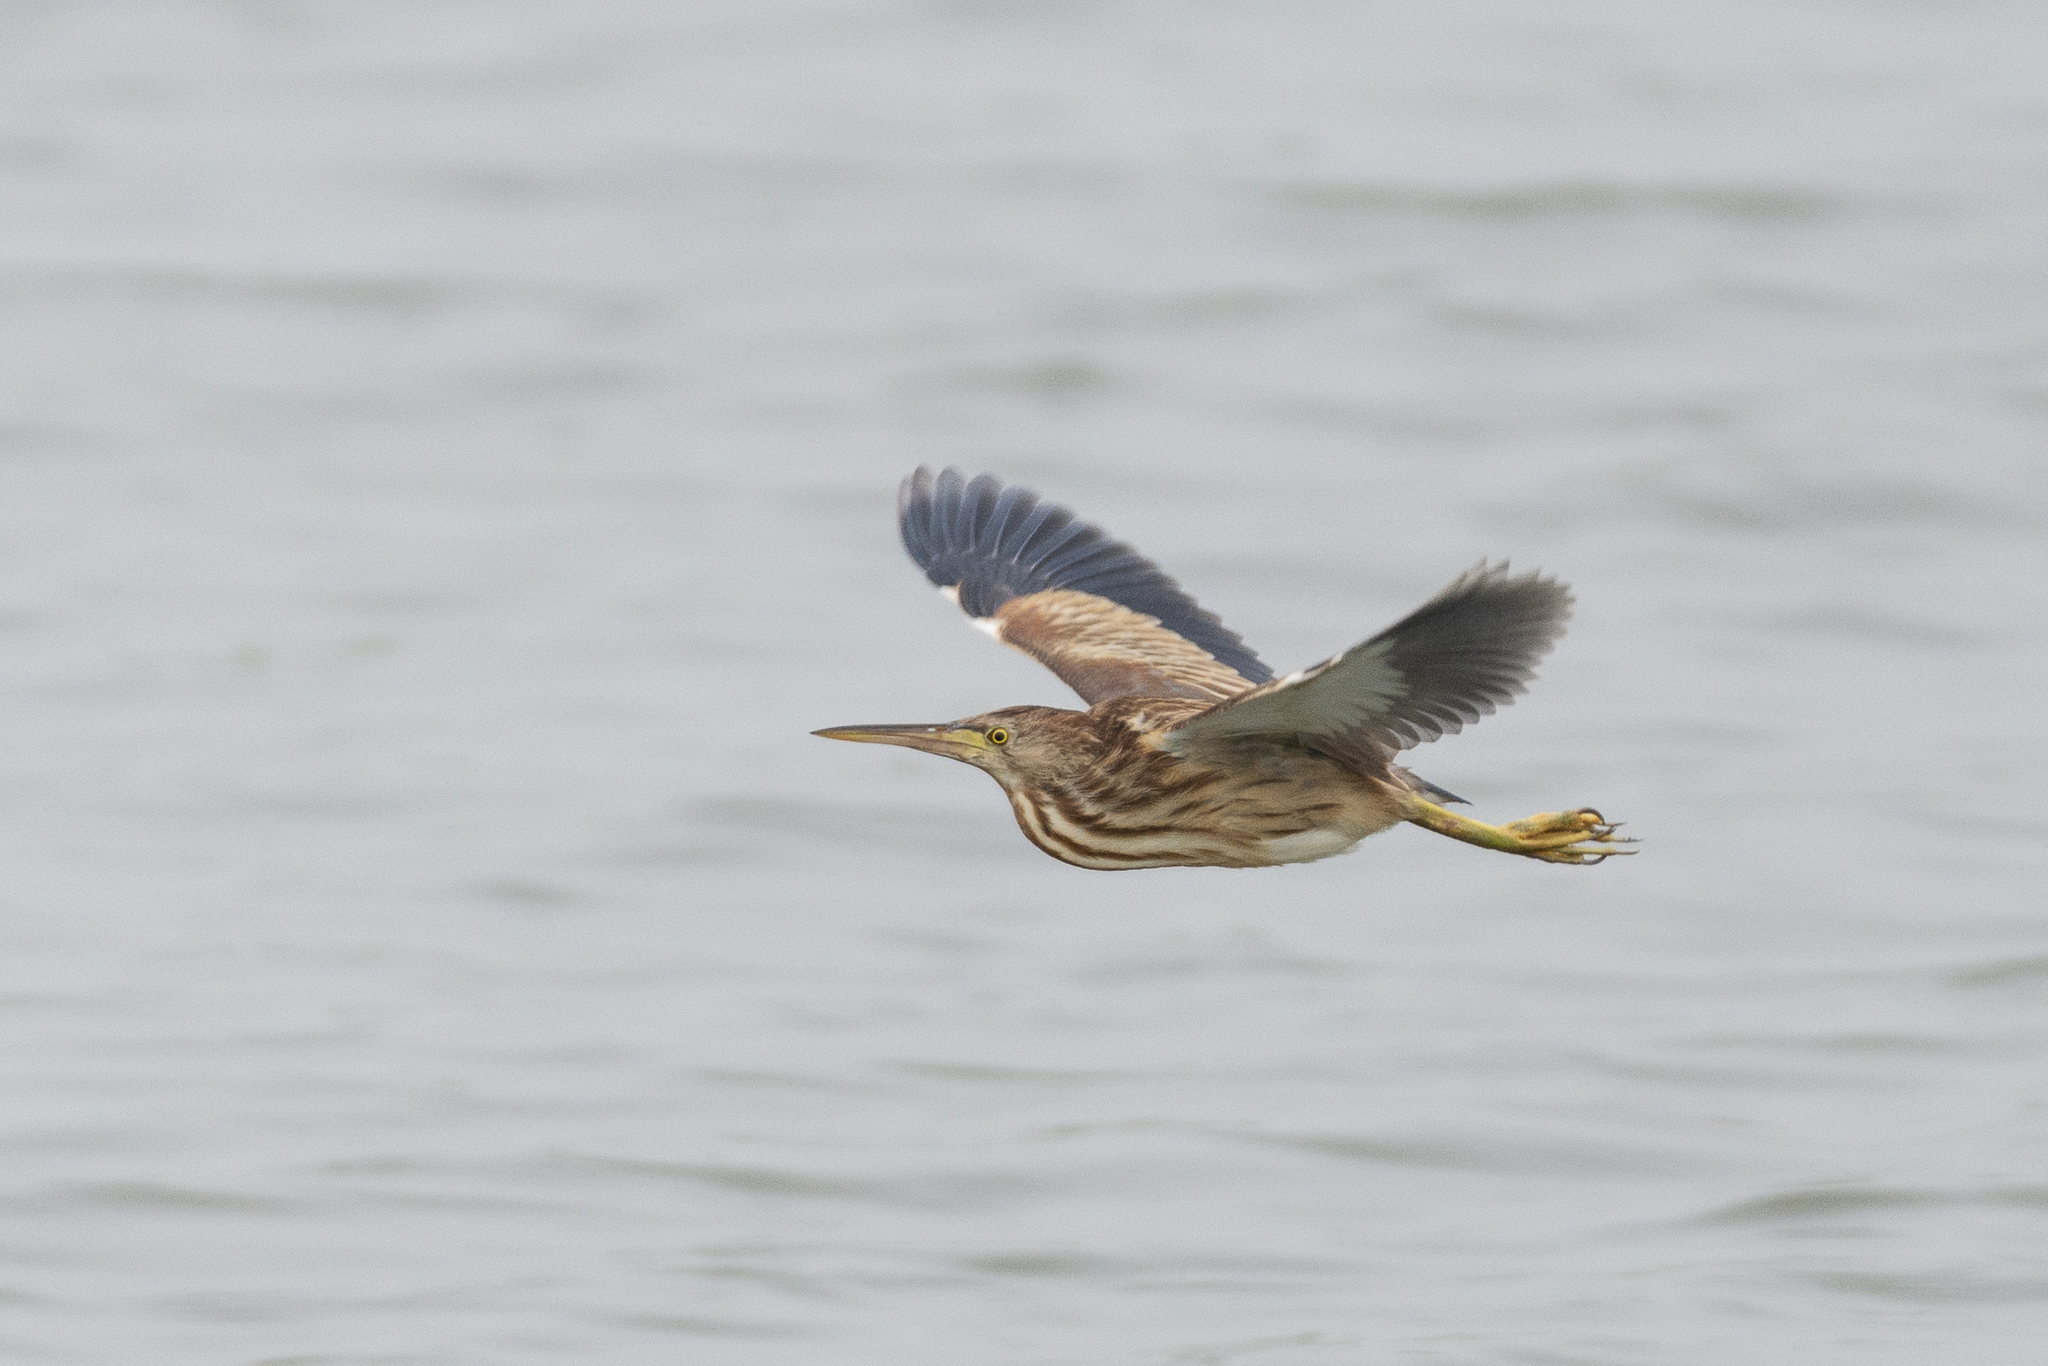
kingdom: Animalia
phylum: Chordata
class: Aves
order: Pelecaniformes
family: Ardeidae
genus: Ixobrychus
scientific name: Ixobrychus sinensis
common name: Yellow bittern
